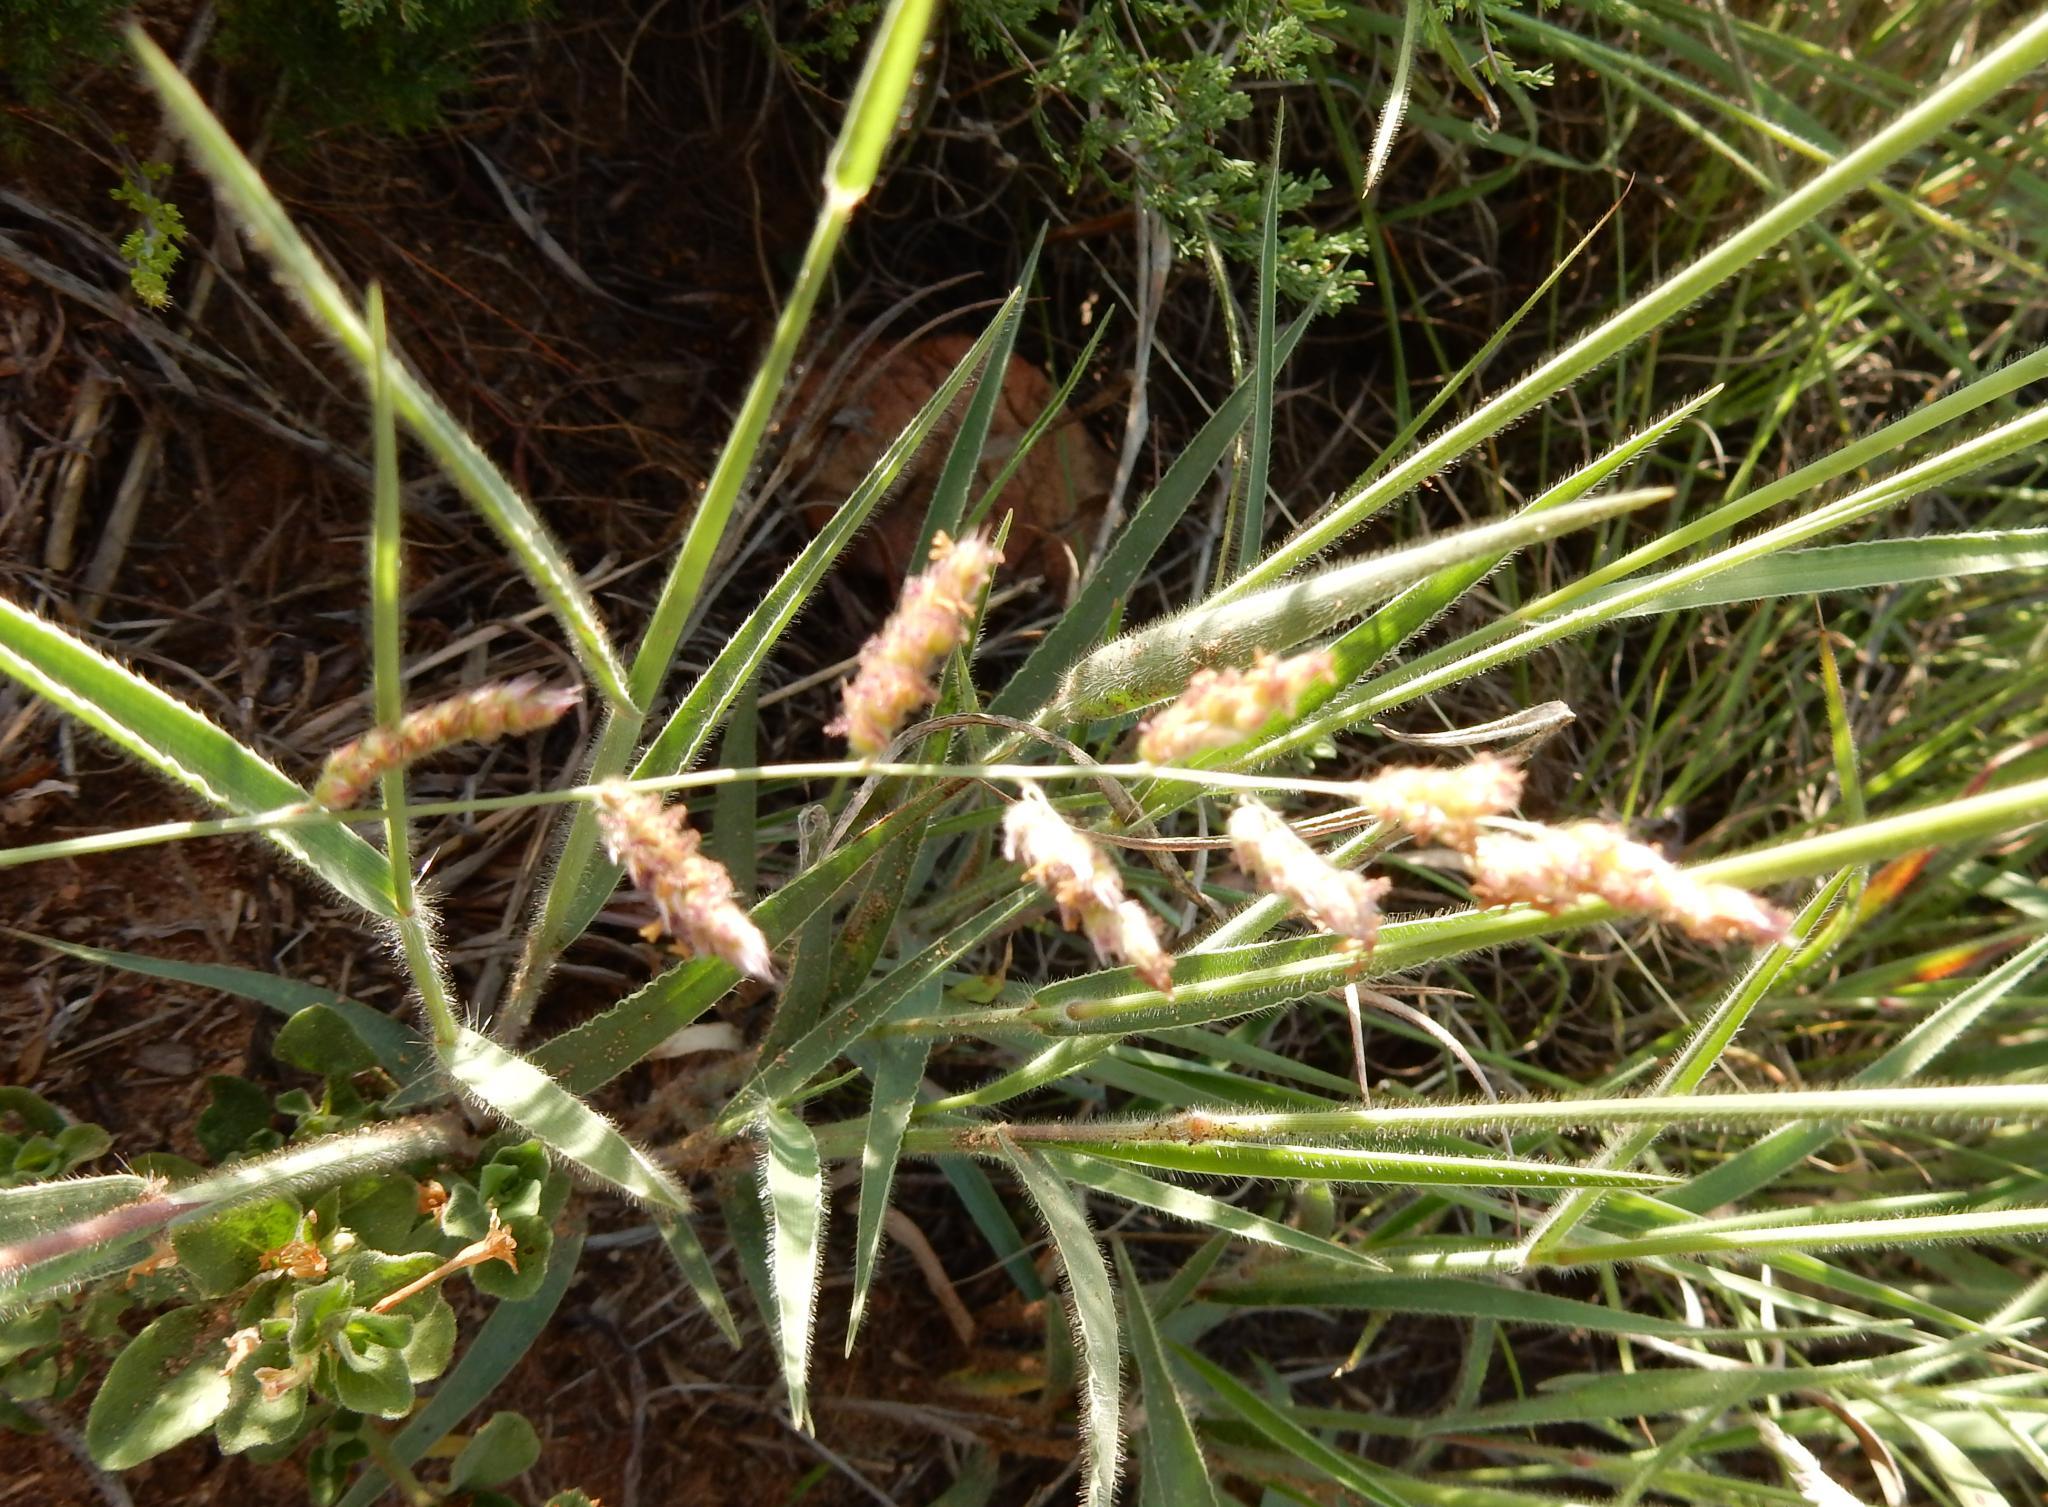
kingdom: Plantae
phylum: Tracheophyta
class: Liliopsida
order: Poales
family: Poaceae
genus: Urochloa
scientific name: Urochloa serrata
